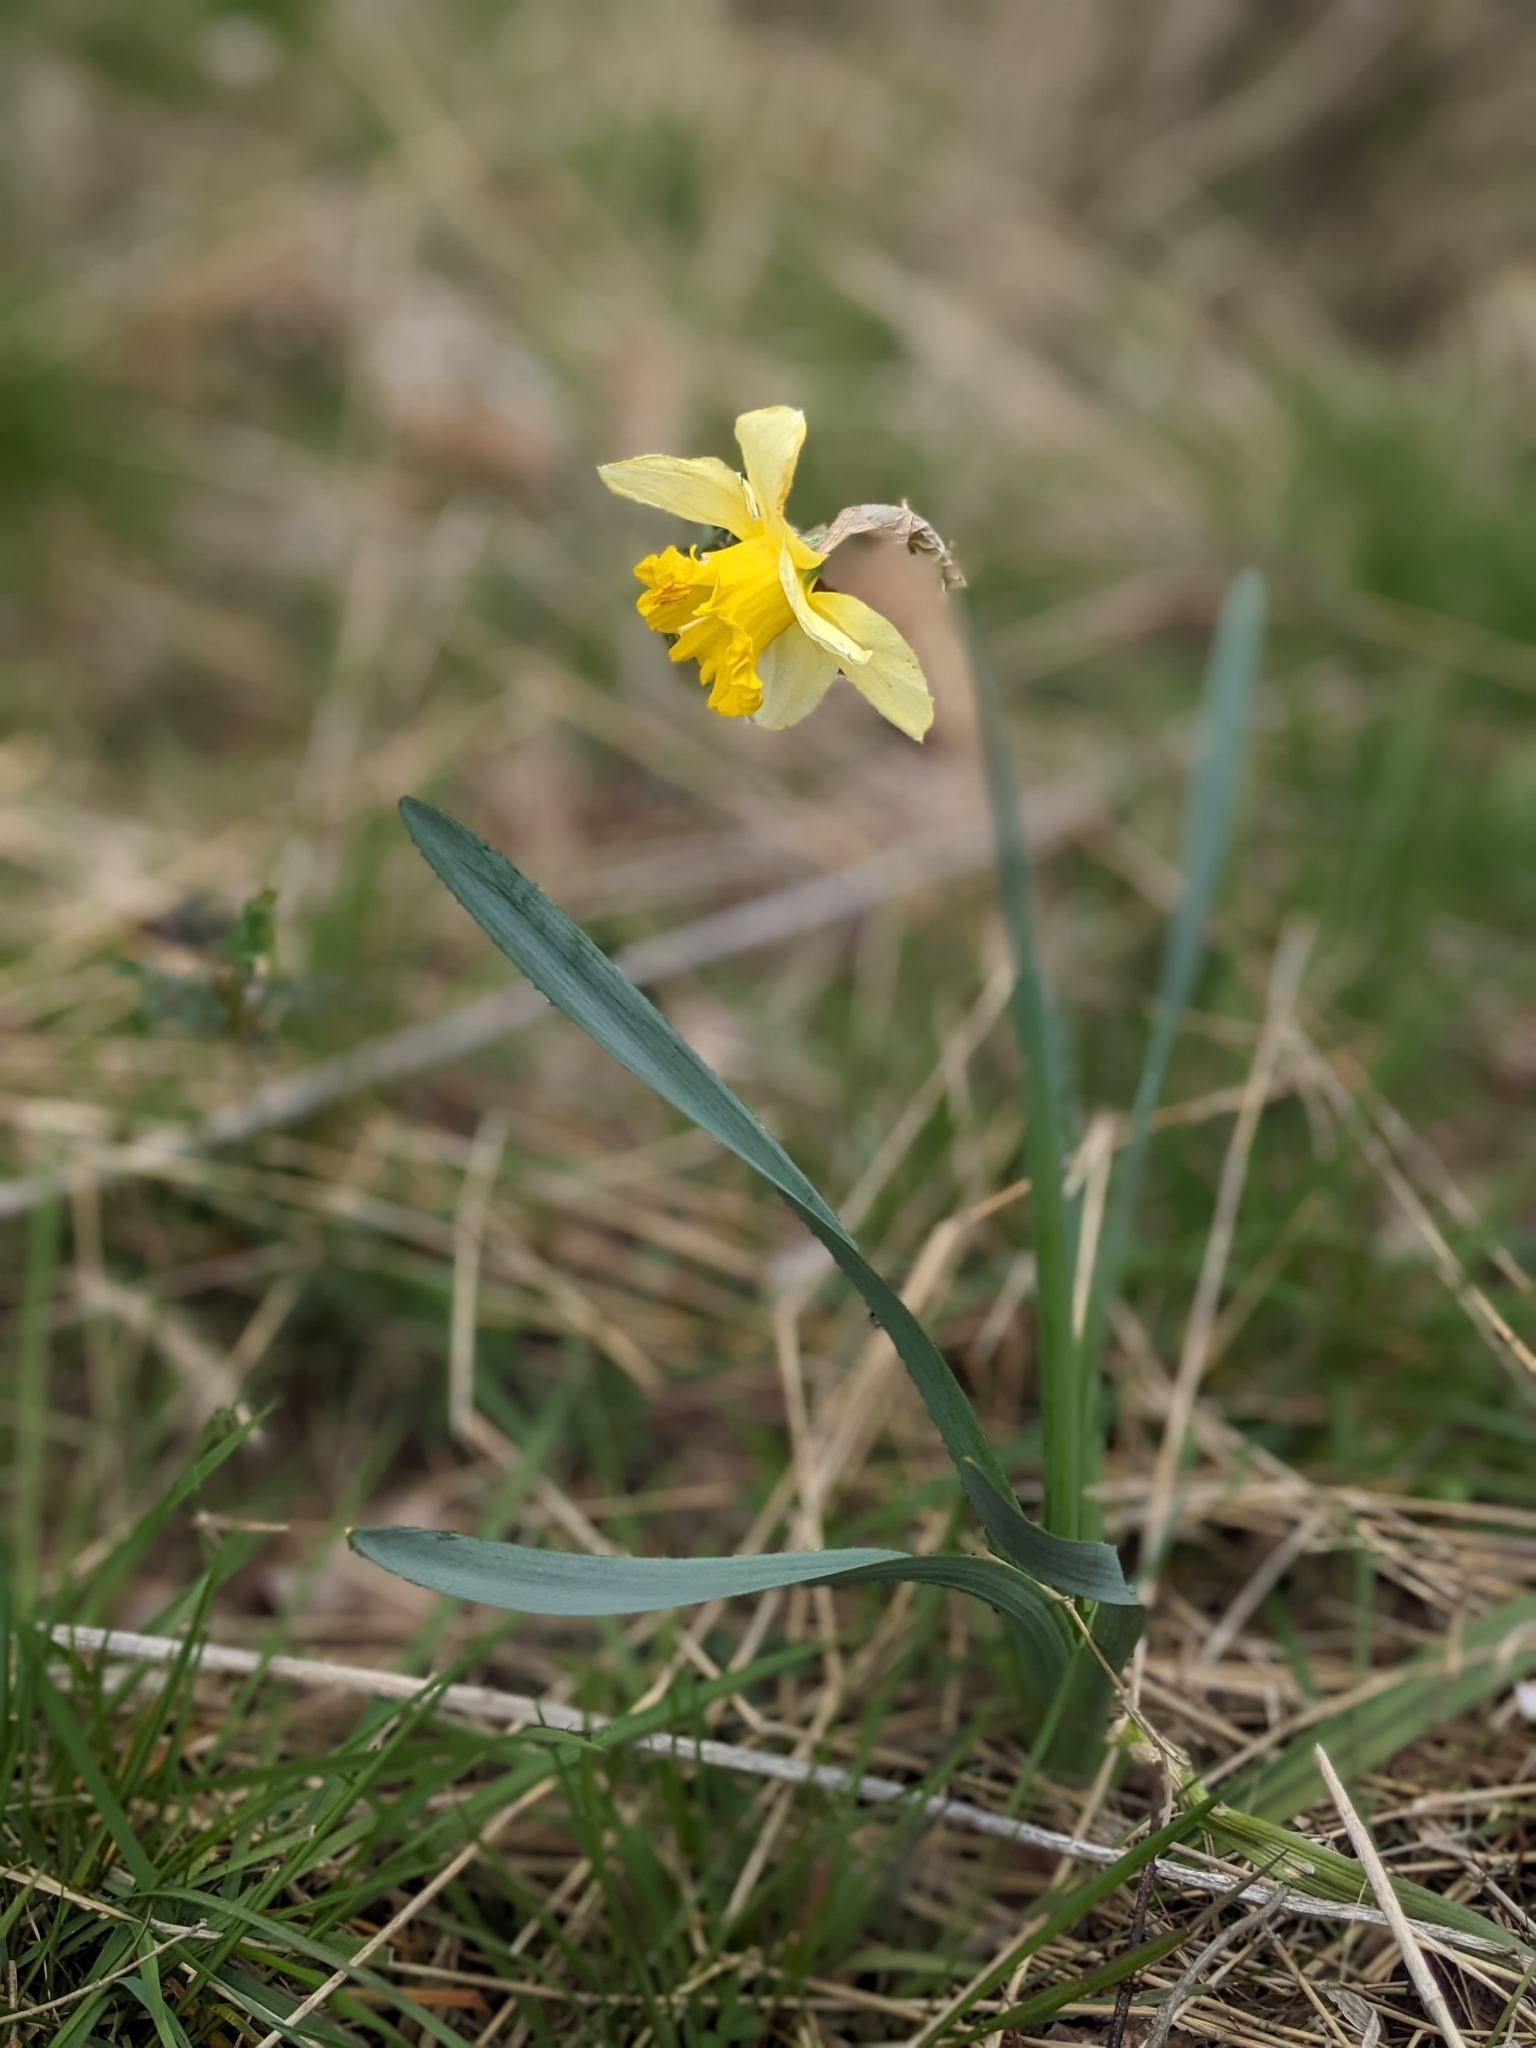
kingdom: Plantae
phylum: Tracheophyta
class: Liliopsida
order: Asparagales
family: Amaryllidaceae
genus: Narcissus
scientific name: Narcissus pseudonarcissus
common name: Daffodil
